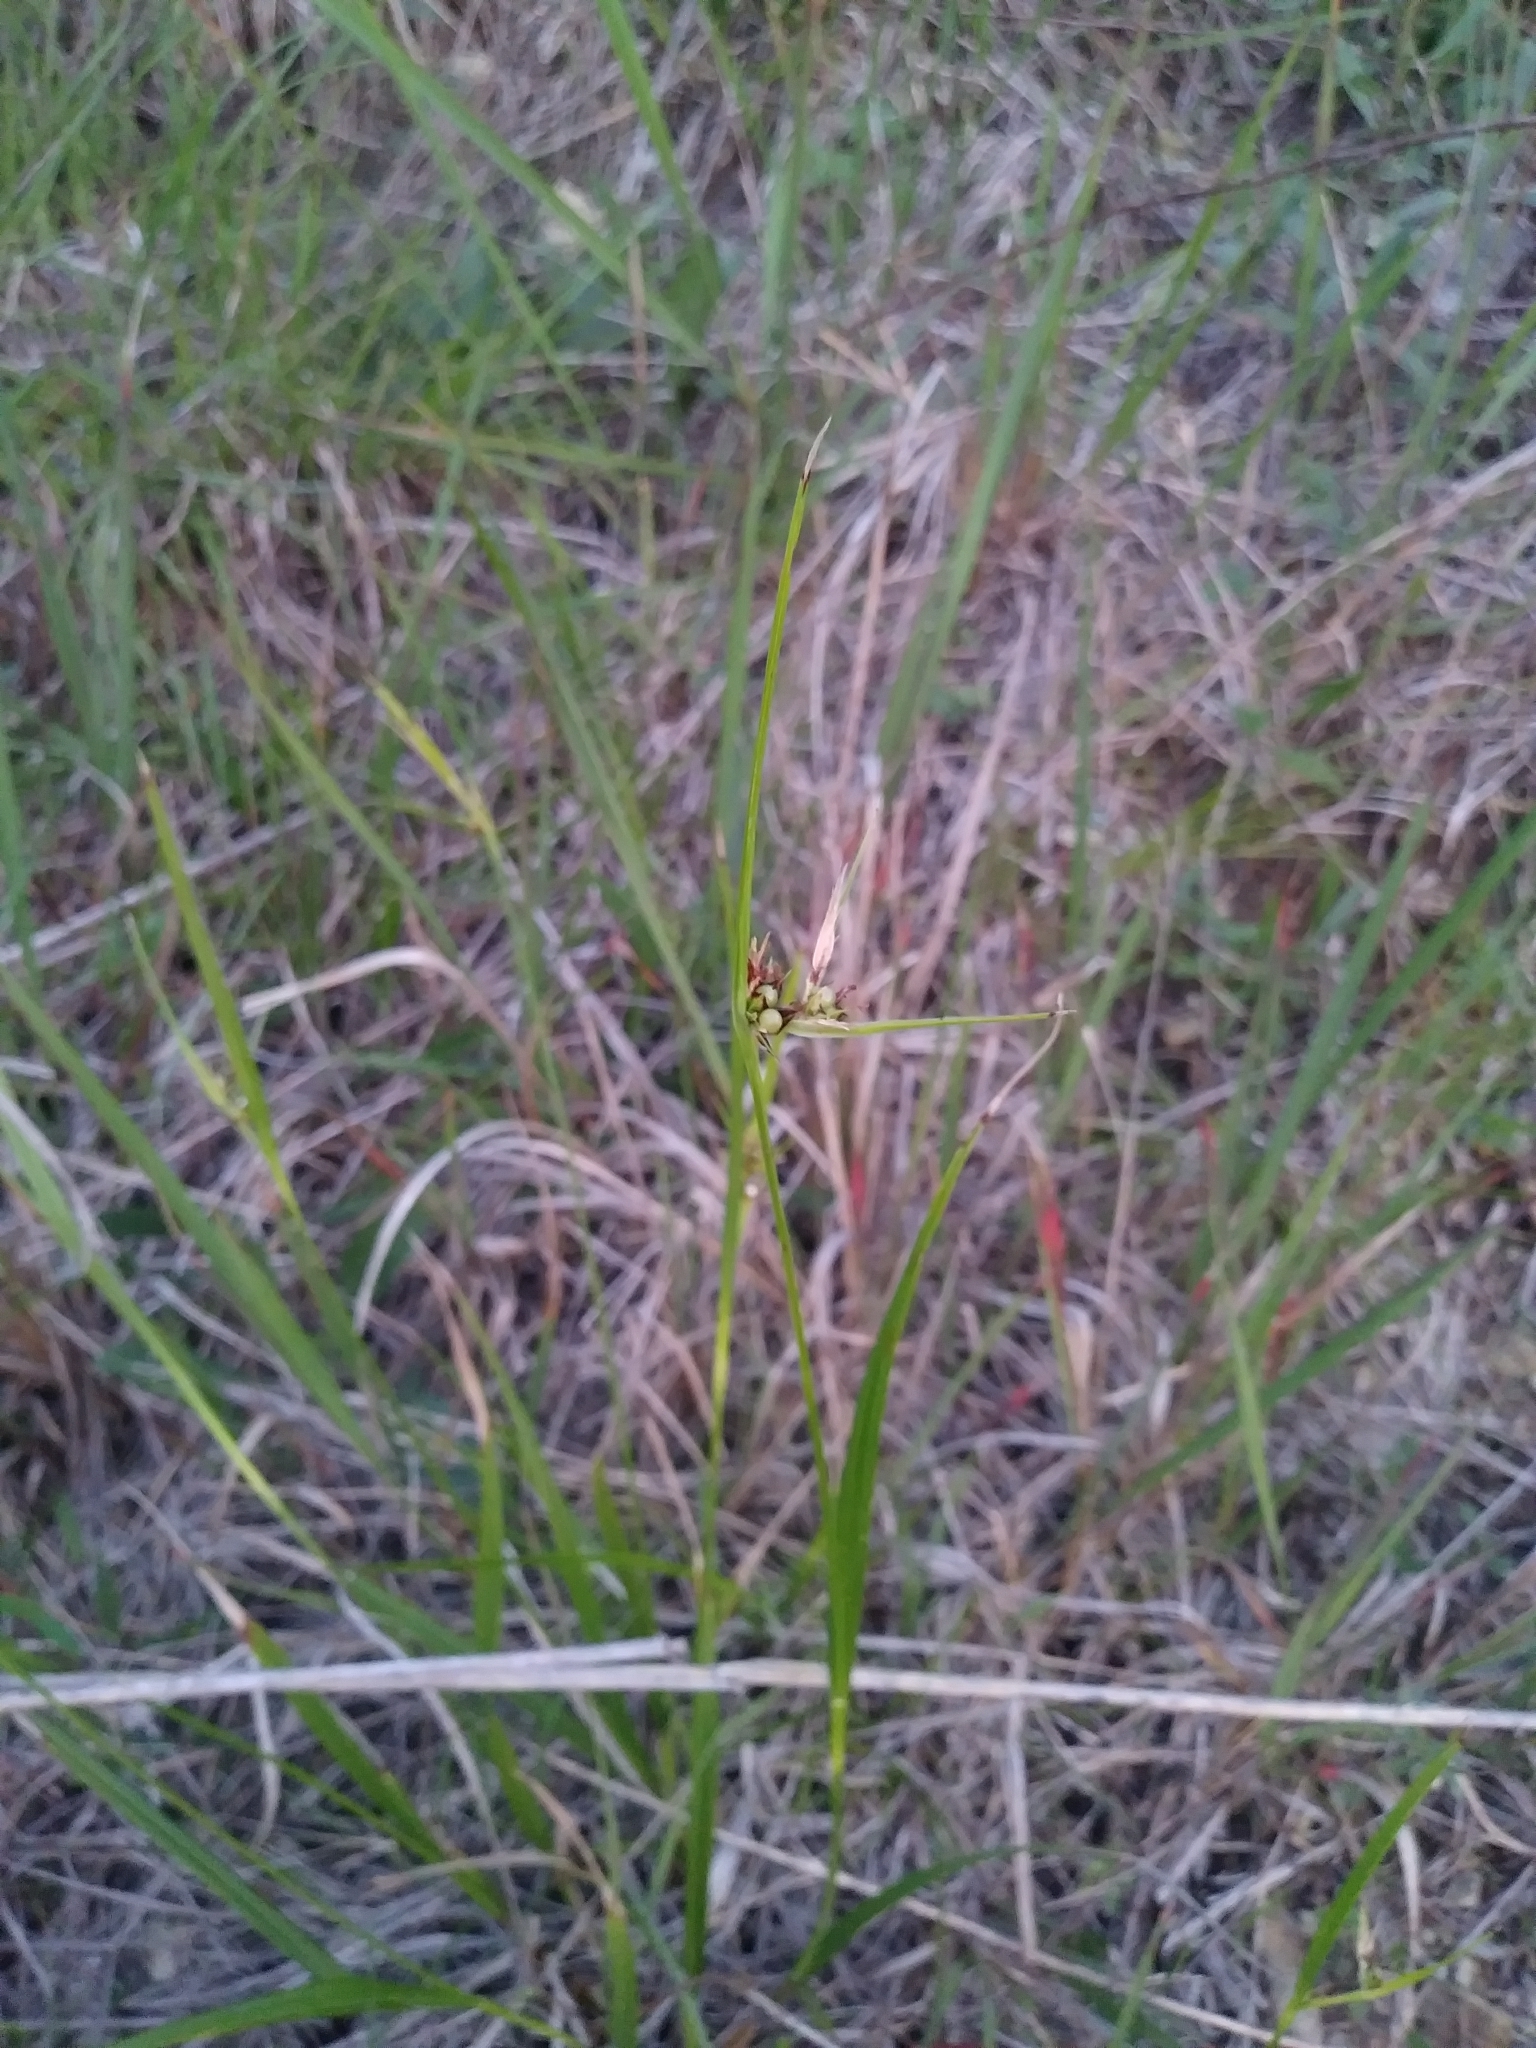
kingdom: Plantae
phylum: Tracheophyta
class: Liliopsida
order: Poales
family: Cyperaceae
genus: Scleria
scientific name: Scleria triglomerata
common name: Whip nutrush
